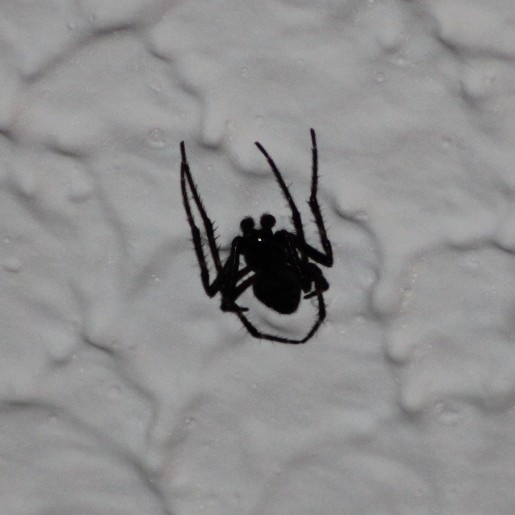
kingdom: Animalia
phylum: Arthropoda
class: Arachnida
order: Araneae
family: Araneidae
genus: Nuctenea
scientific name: Nuctenea umbratica
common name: Toad spider
